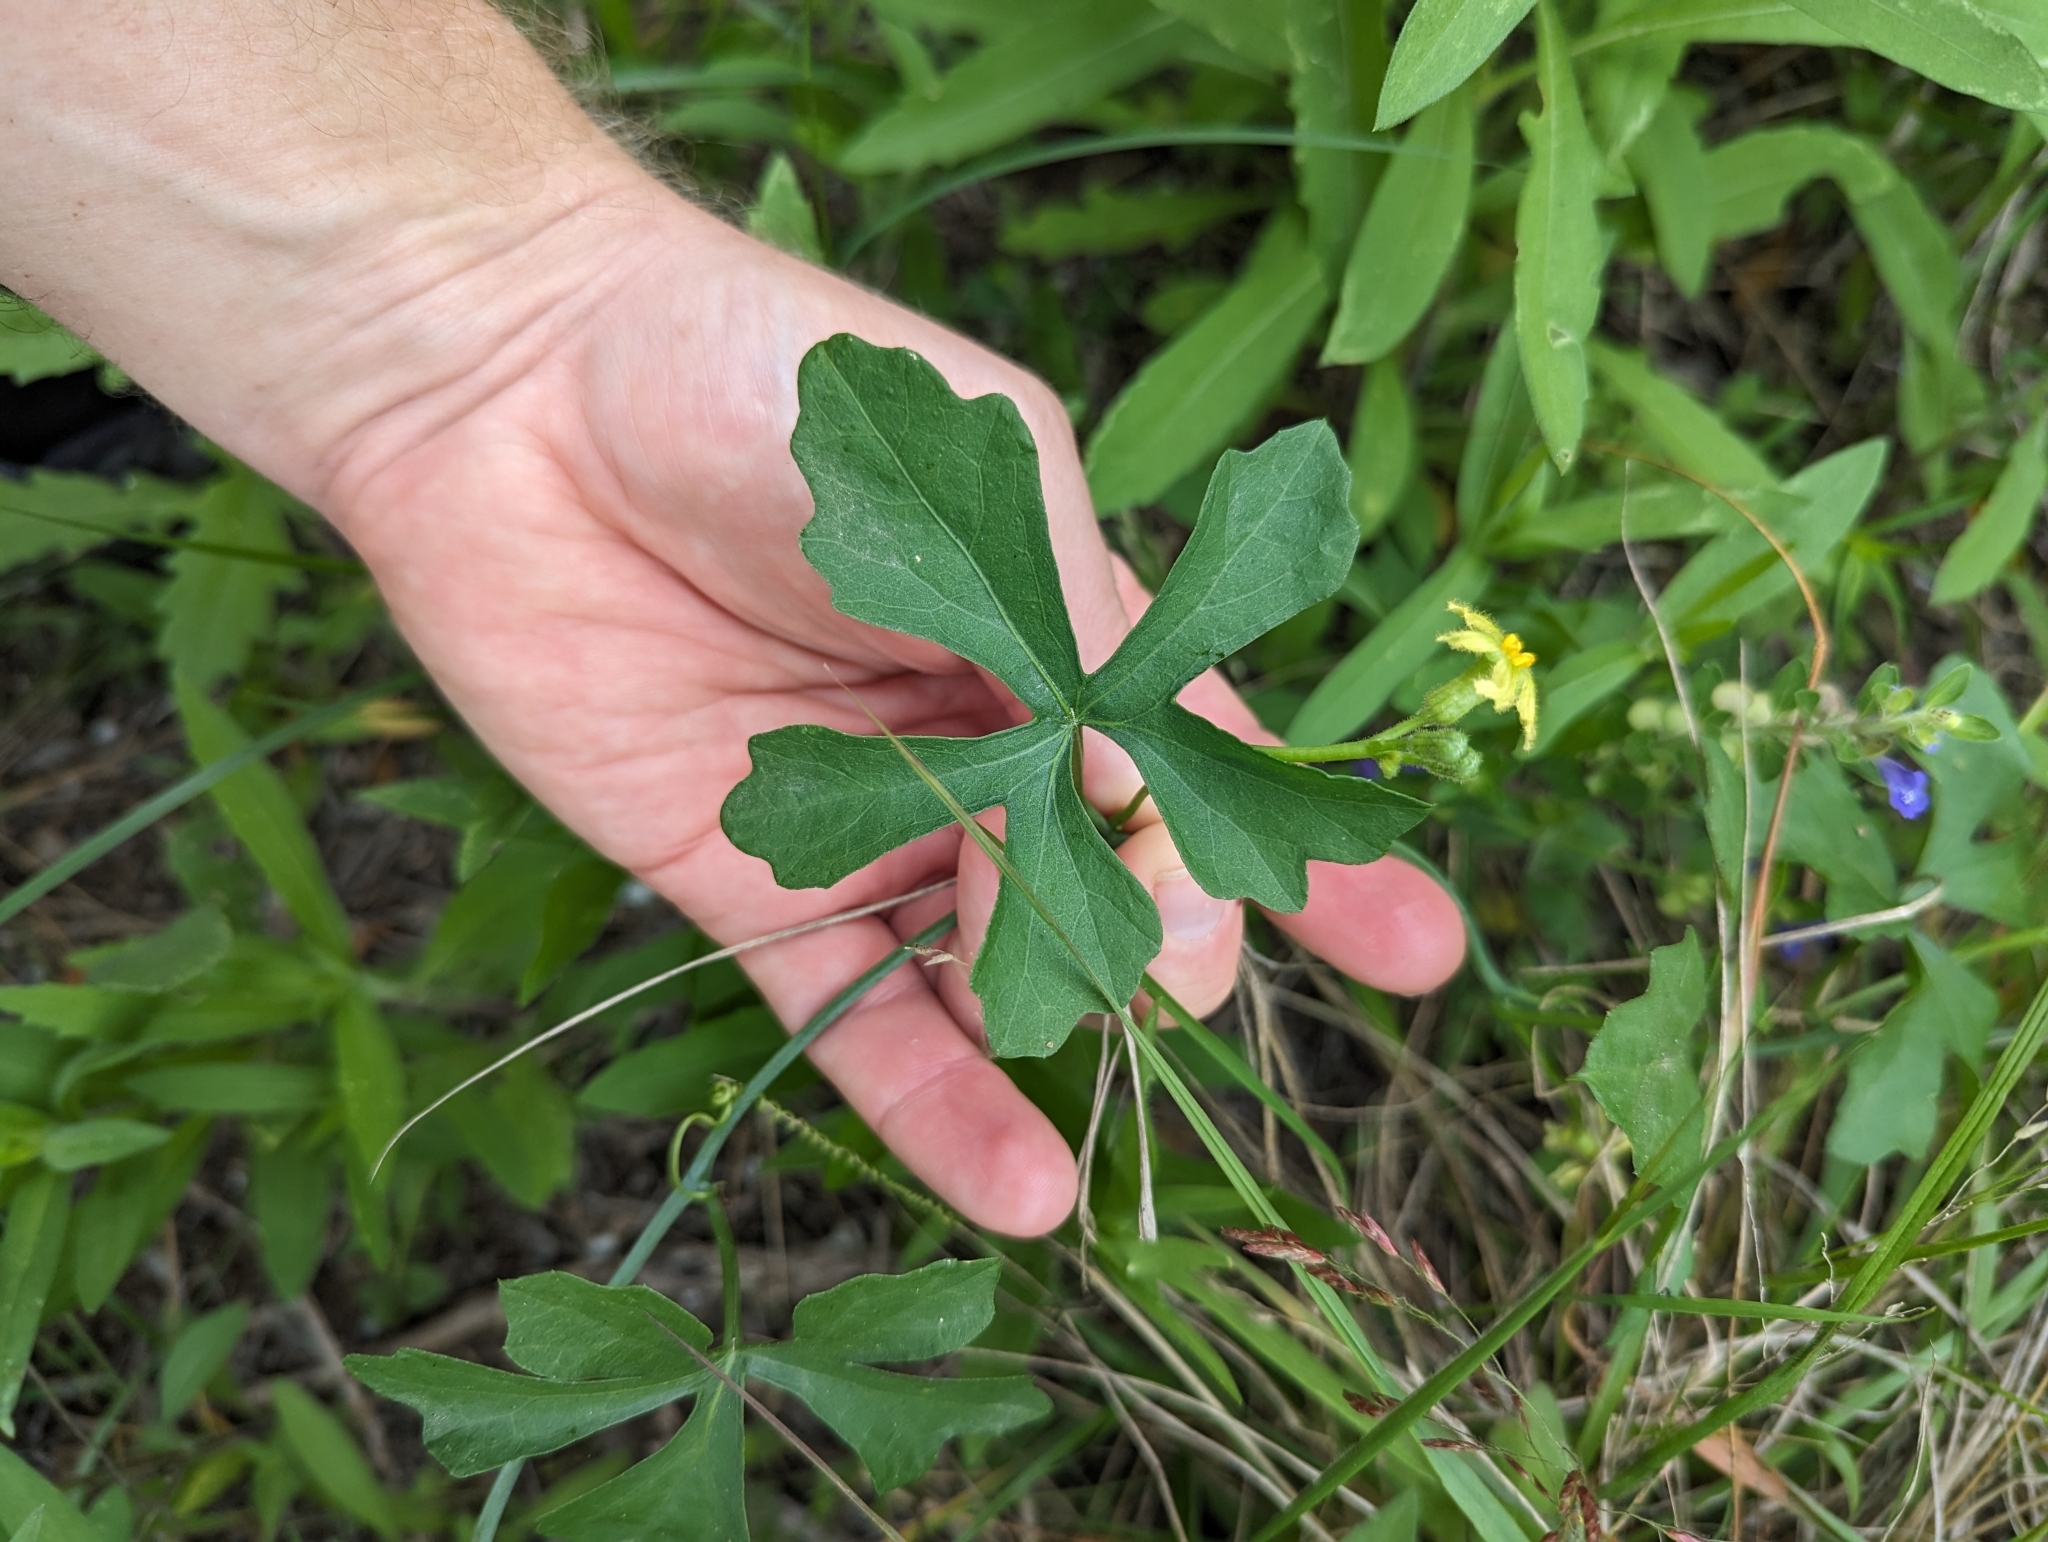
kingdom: Plantae
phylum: Tracheophyta
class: Magnoliopsida
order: Cucurbitales
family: Cucurbitaceae
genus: Ibervillea
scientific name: Ibervillea lindheimeri
